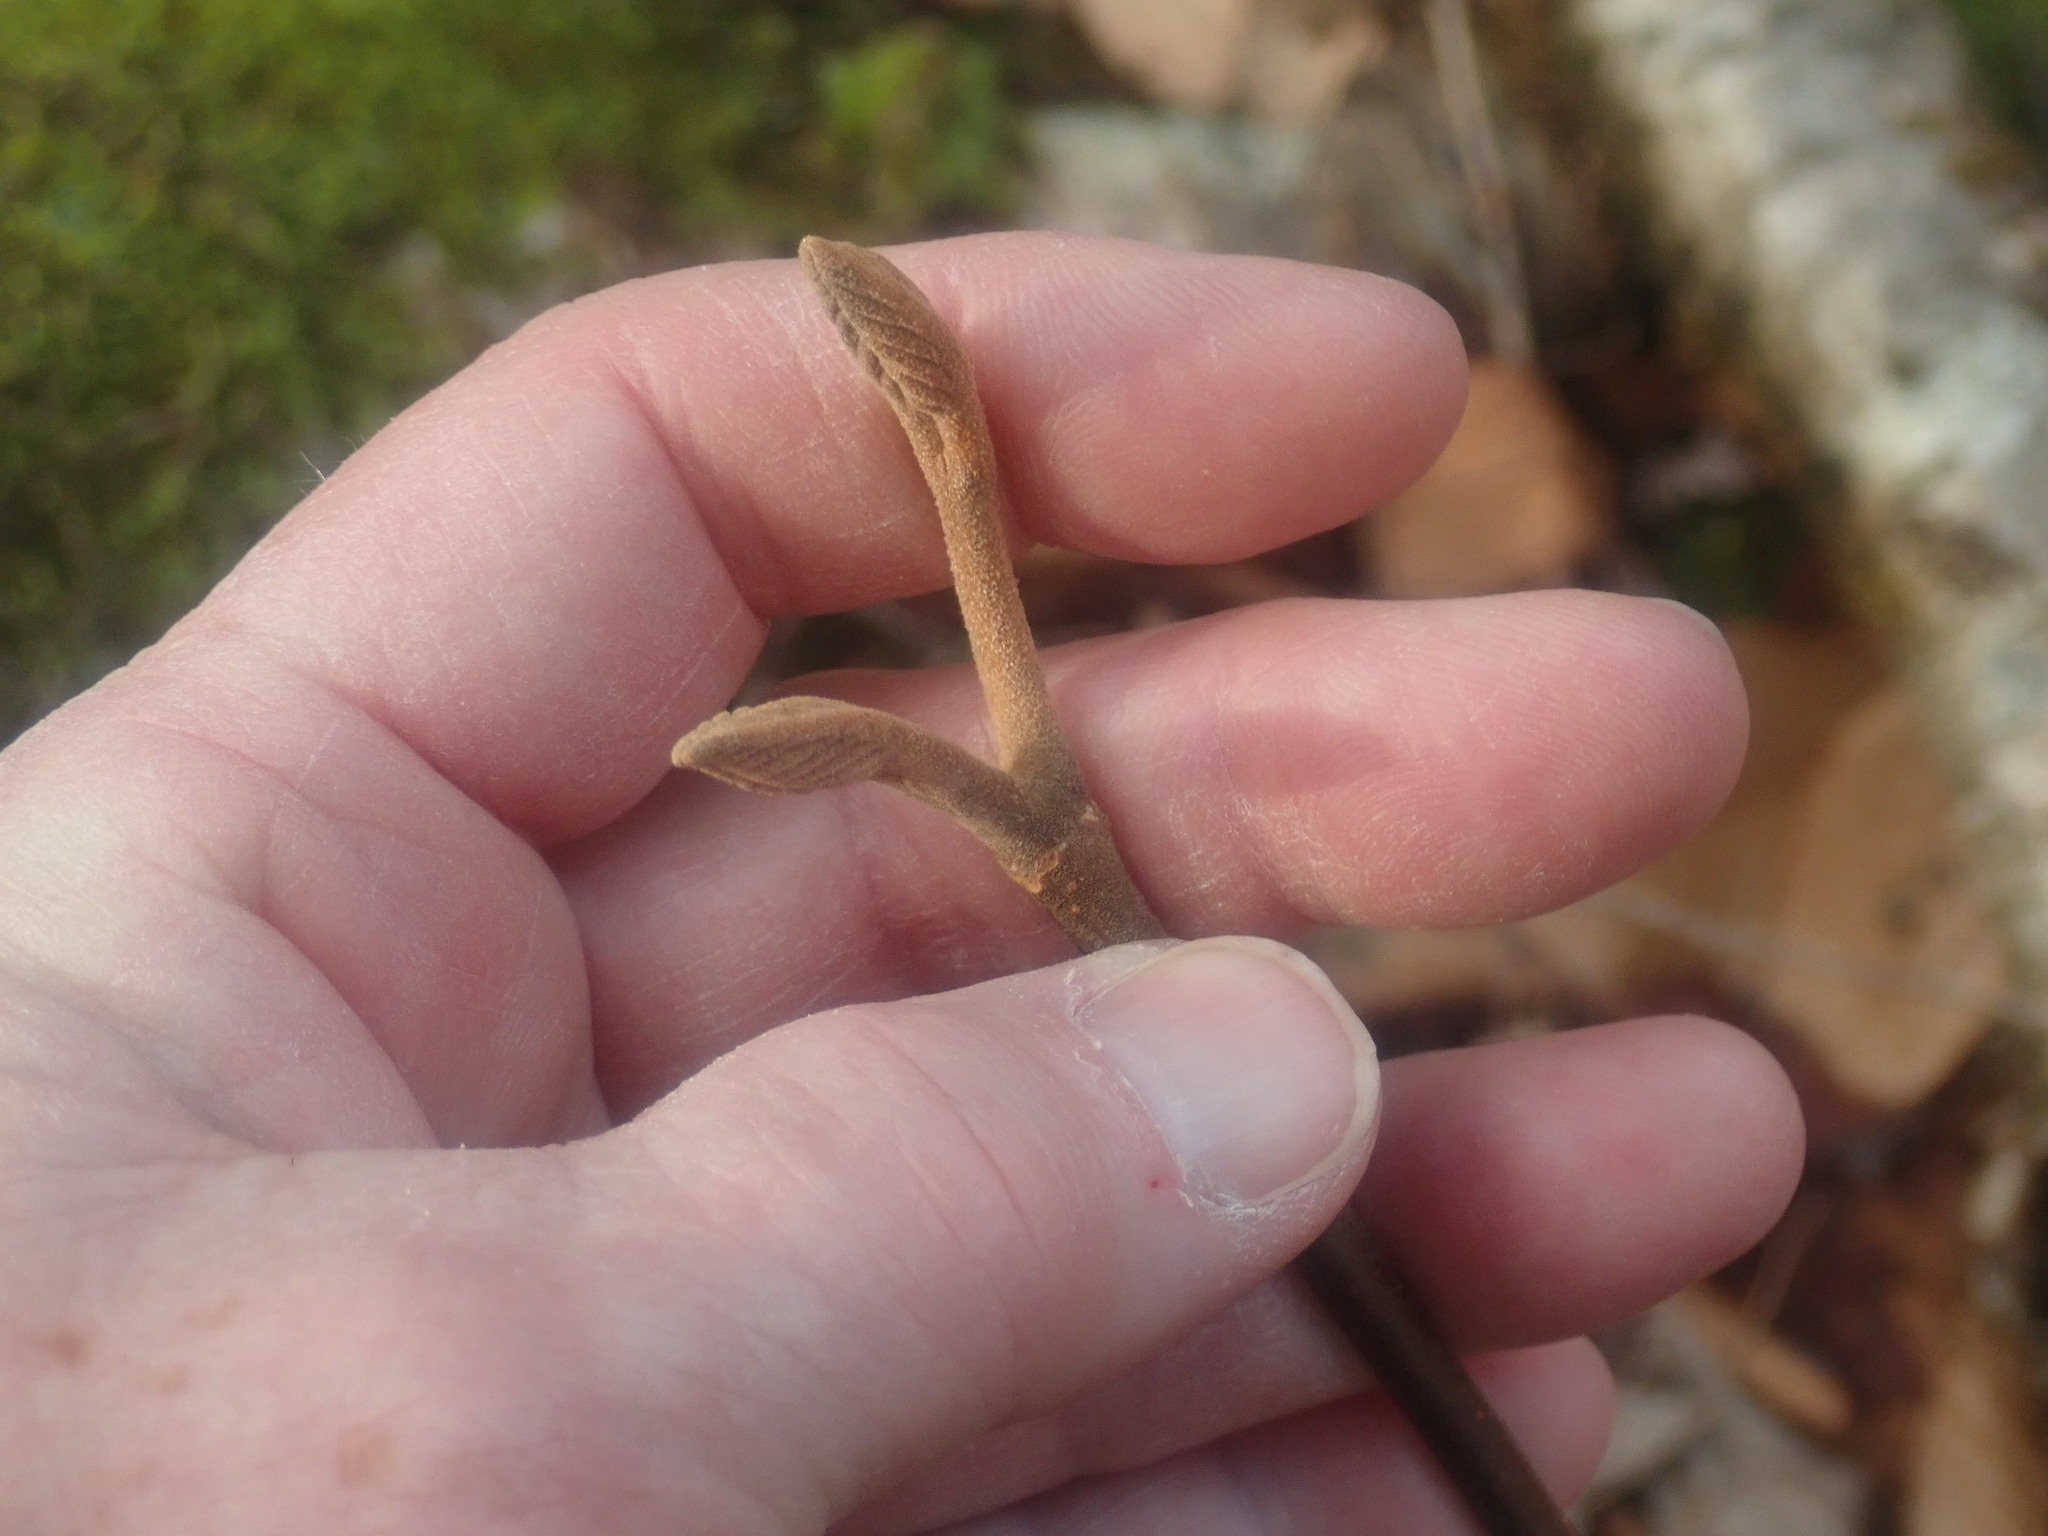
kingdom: Plantae
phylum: Tracheophyta
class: Magnoliopsida
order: Dipsacales
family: Viburnaceae
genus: Viburnum
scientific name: Viburnum lantanoides
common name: Hobblebush
